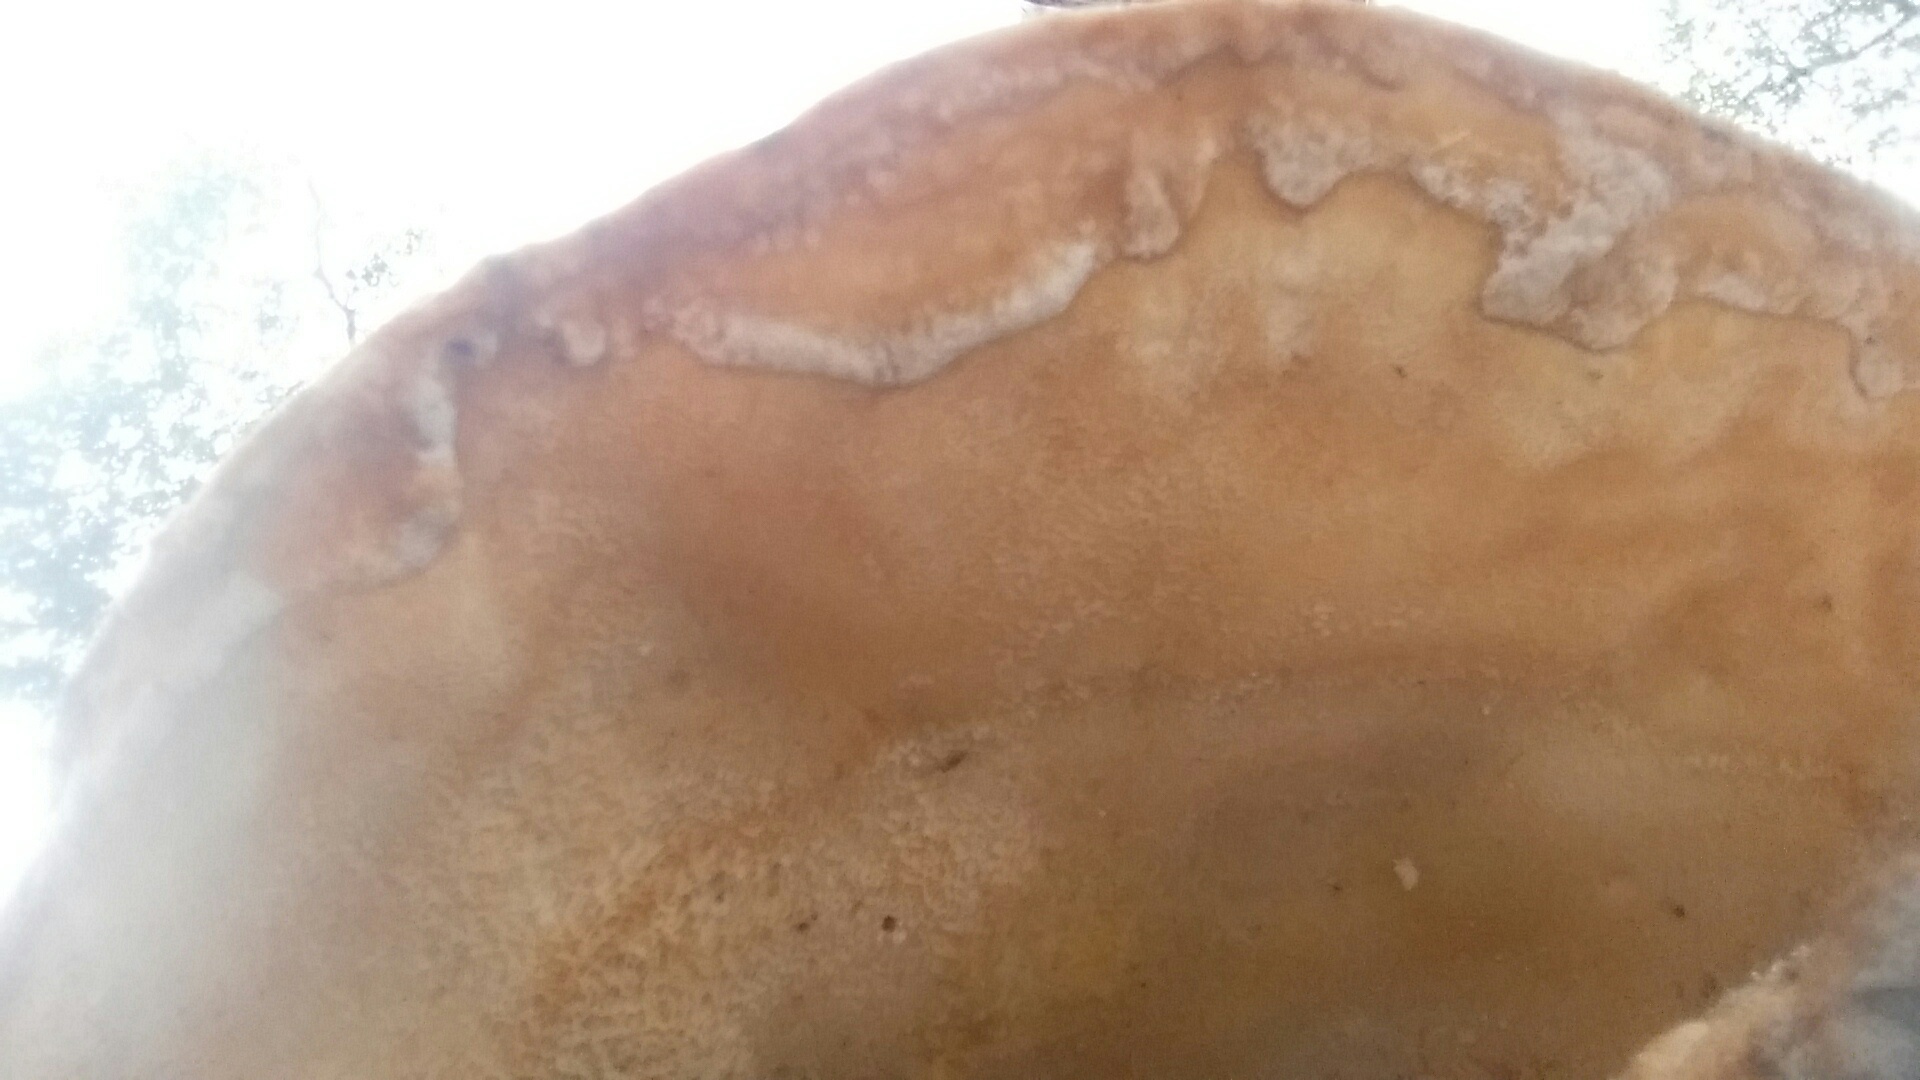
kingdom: Fungi
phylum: Basidiomycota
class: Agaricomycetes
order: Polyporales
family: Laetiporaceae
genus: Laetiporus
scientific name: Laetiporus gilbertsonii
